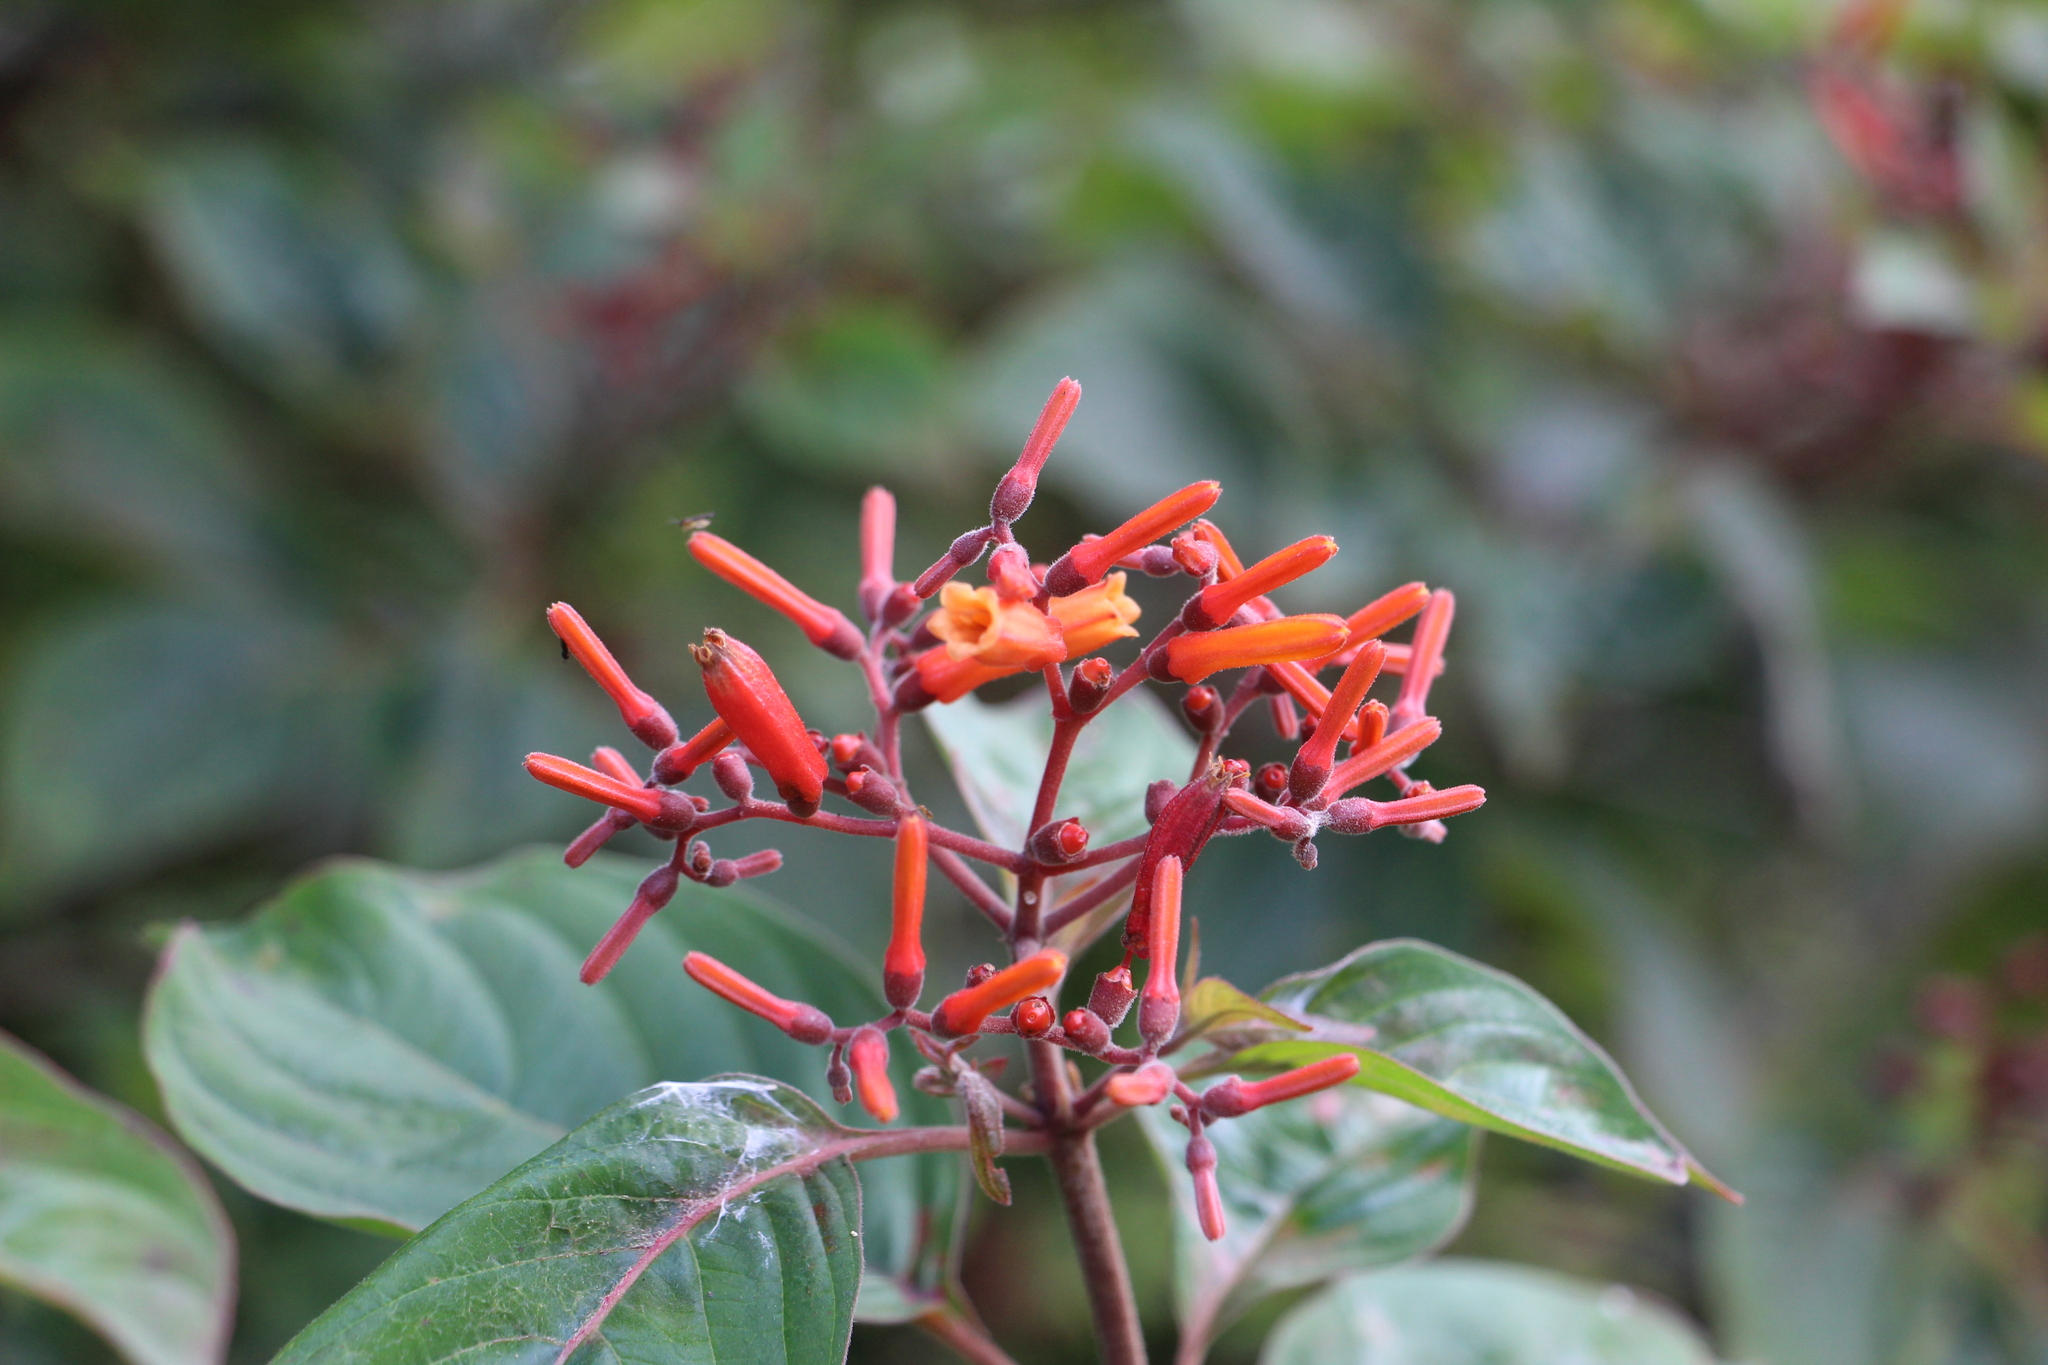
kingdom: Plantae
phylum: Tracheophyta
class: Magnoliopsida
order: Gentianales
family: Rubiaceae
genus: Hamelia
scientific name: Hamelia patens
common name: Redhead
